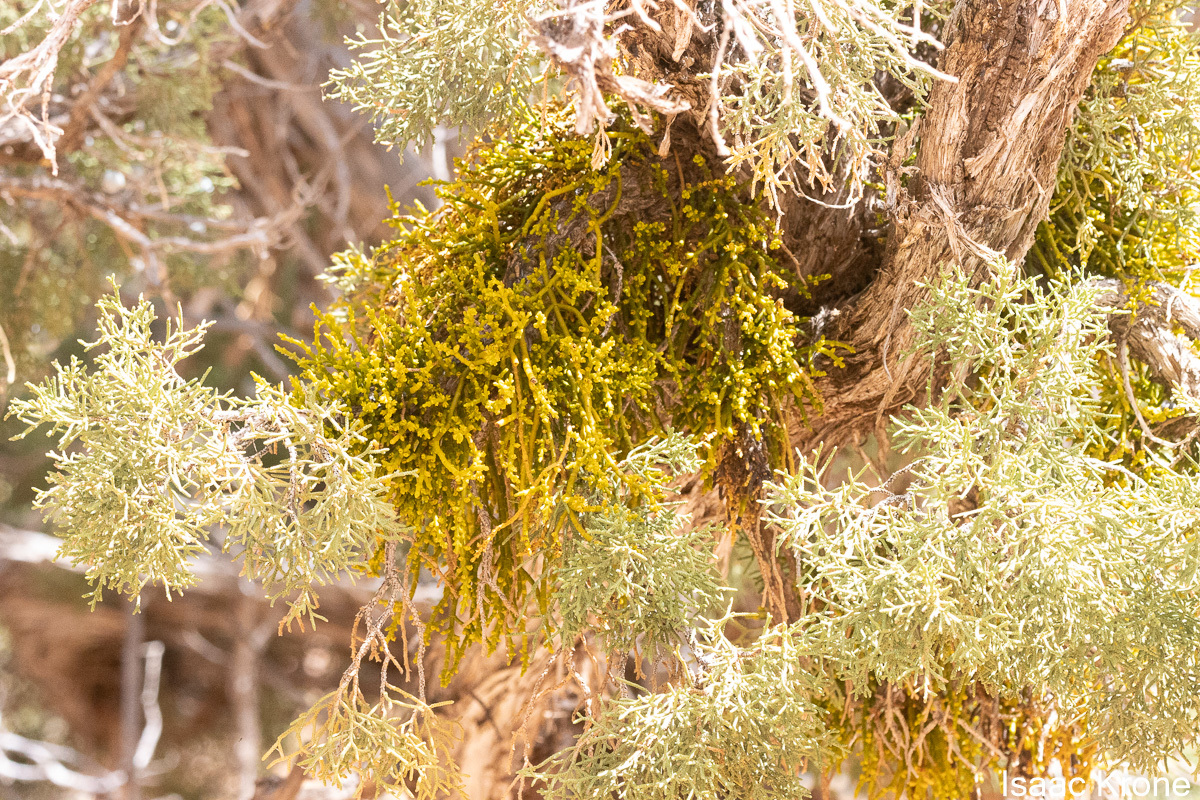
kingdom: Plantae
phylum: Tracheophyta
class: Magnoliopsida
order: Santalales
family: Viscaceae
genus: Phoradendron
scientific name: Phoradendron juniperinum
